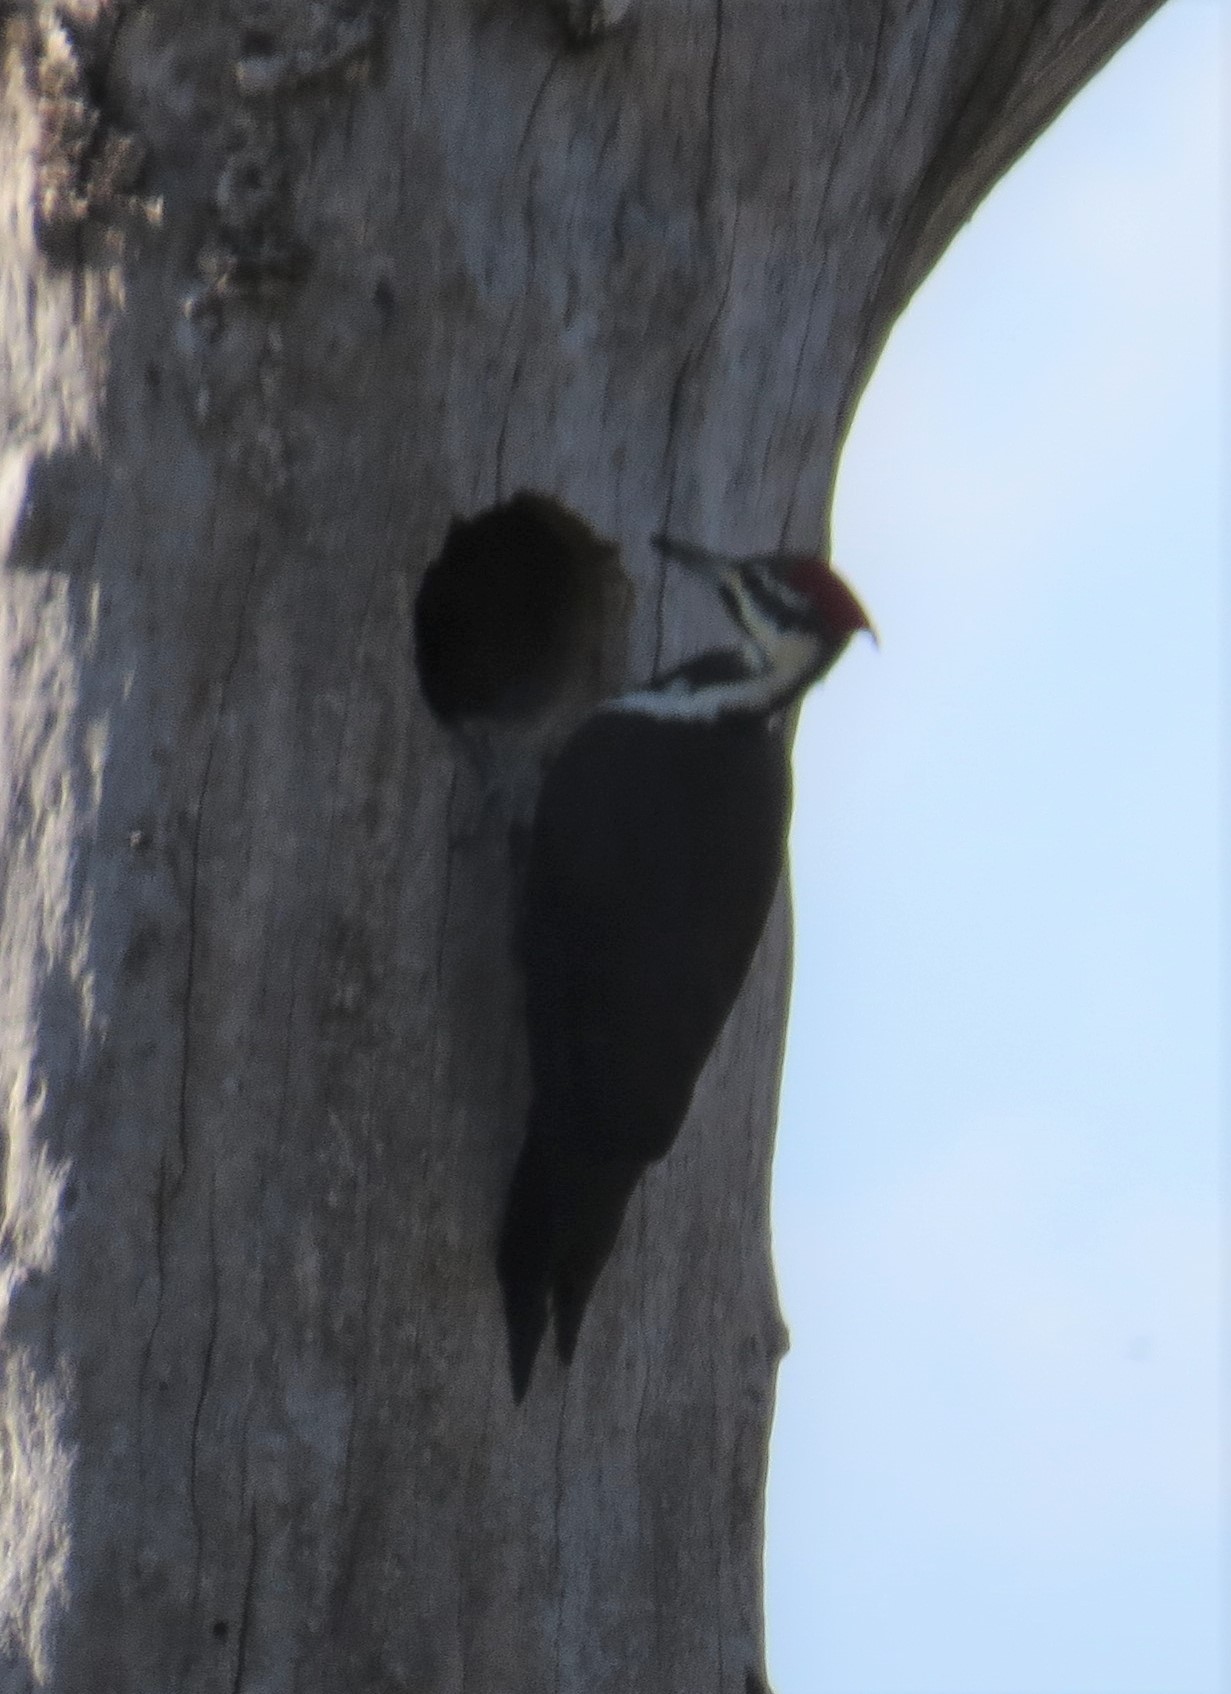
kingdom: Animalia
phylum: Chordata
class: Aves
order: Piciformes
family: Picidae
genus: Dryocopus
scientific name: Dryocopus pileatus
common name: Pileated woodpecker
